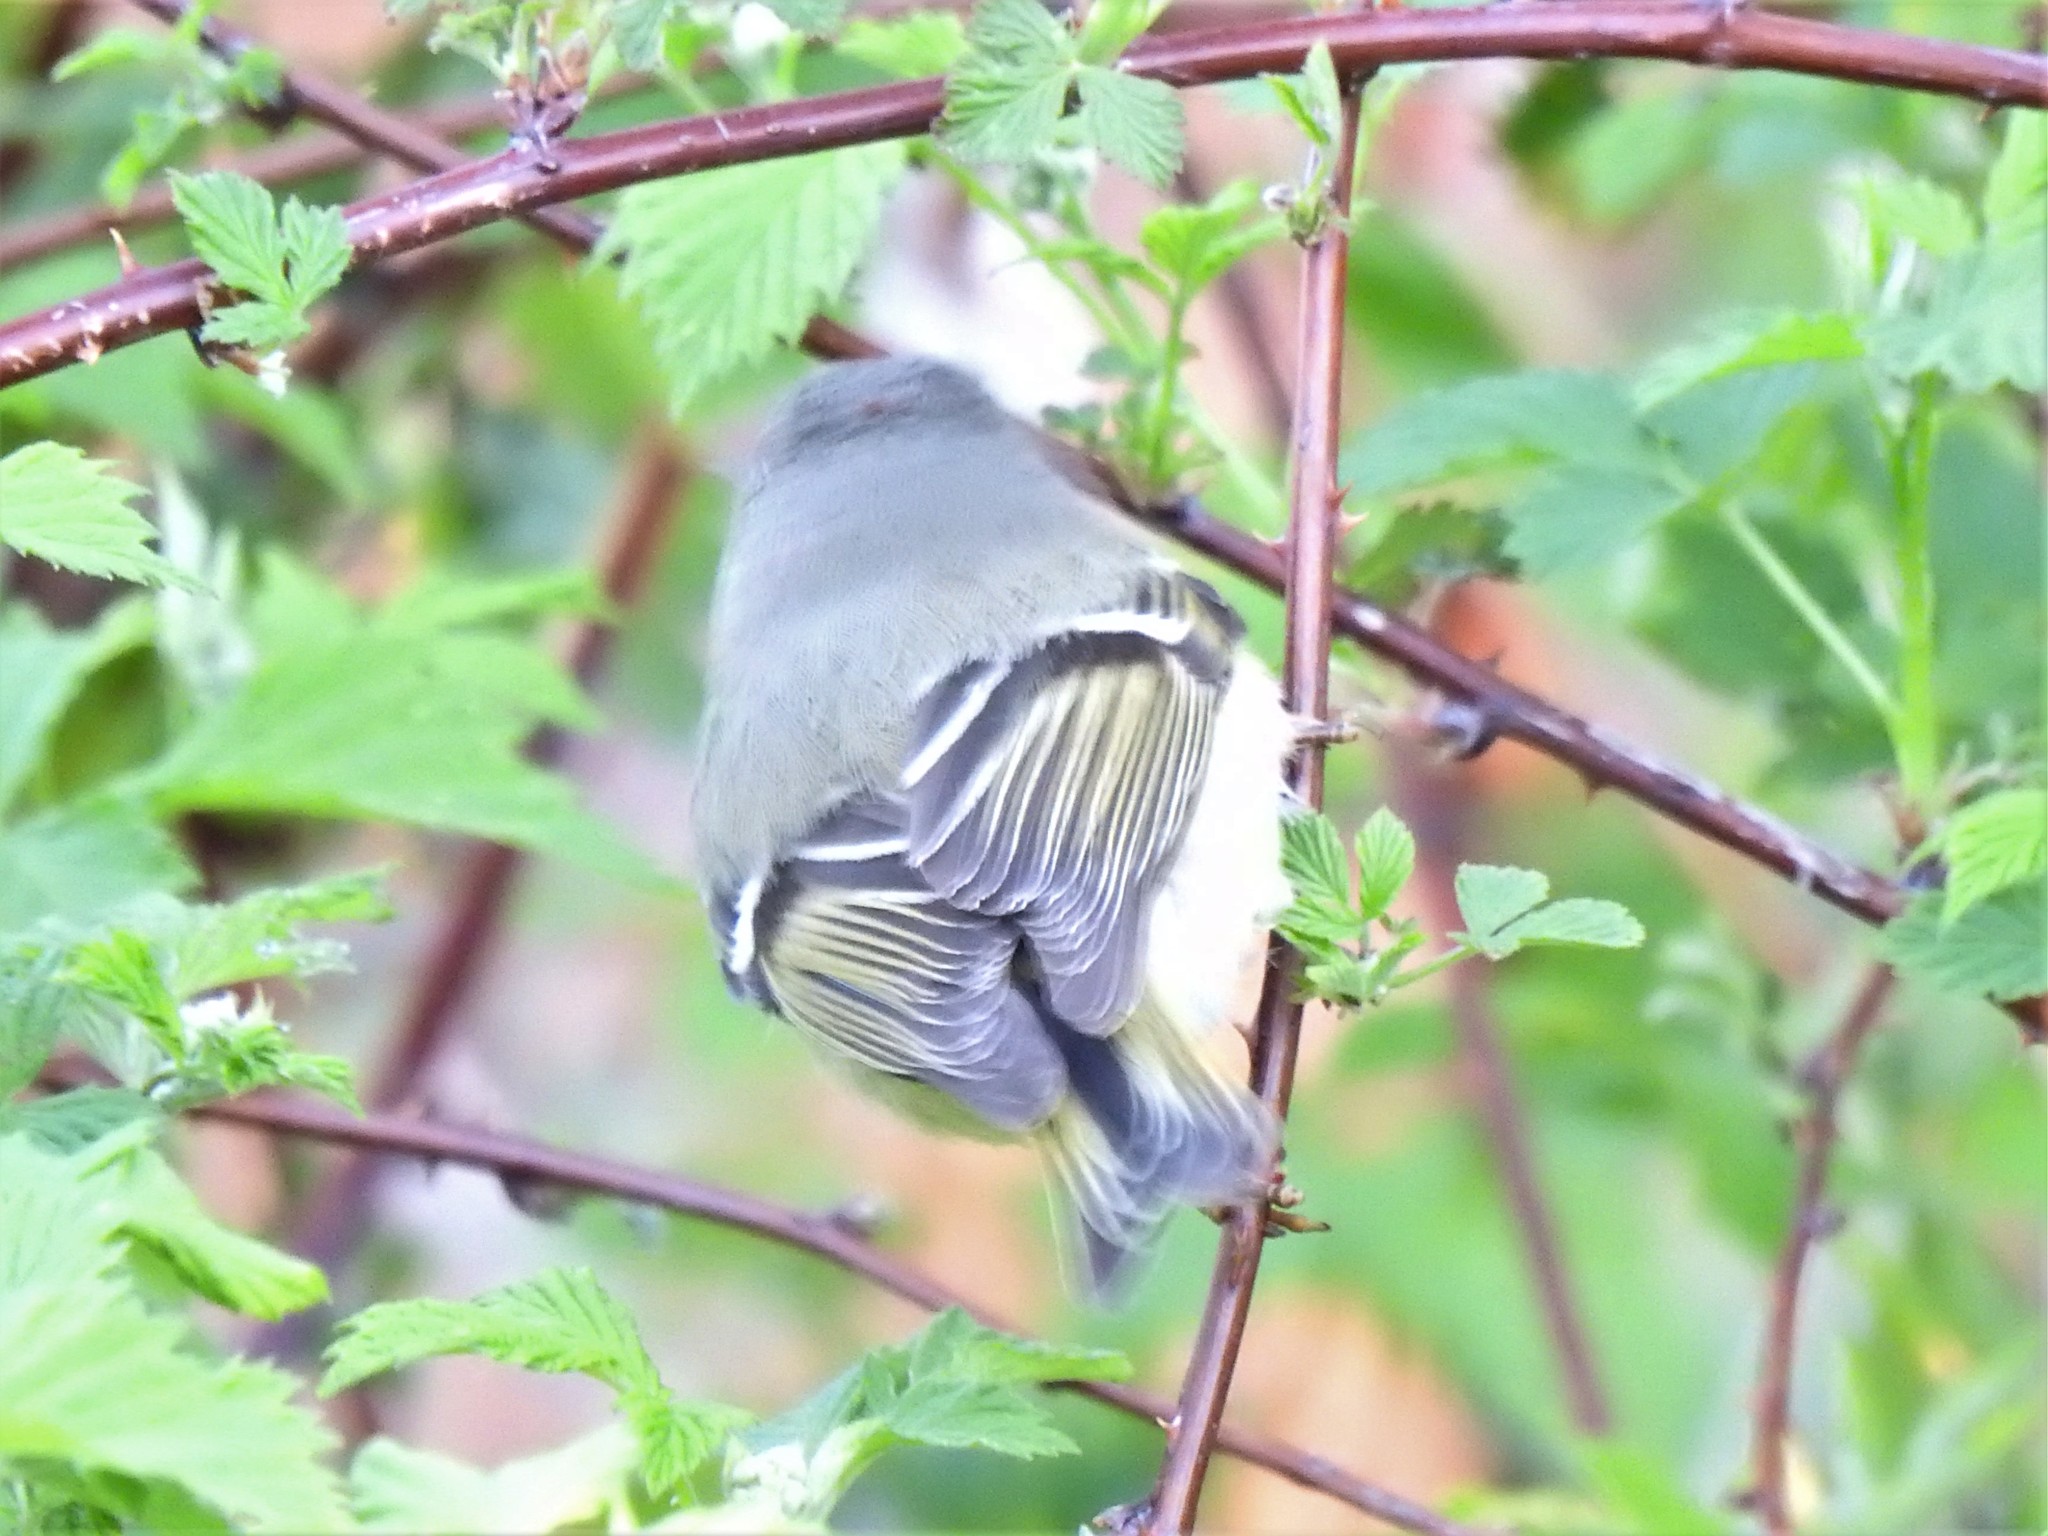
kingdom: Animalia
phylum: Chordata
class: Aves
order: Passeriformes
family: Regulidae
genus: Regulus
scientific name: Regulus calendula
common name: Ruby-crowned kinglet
